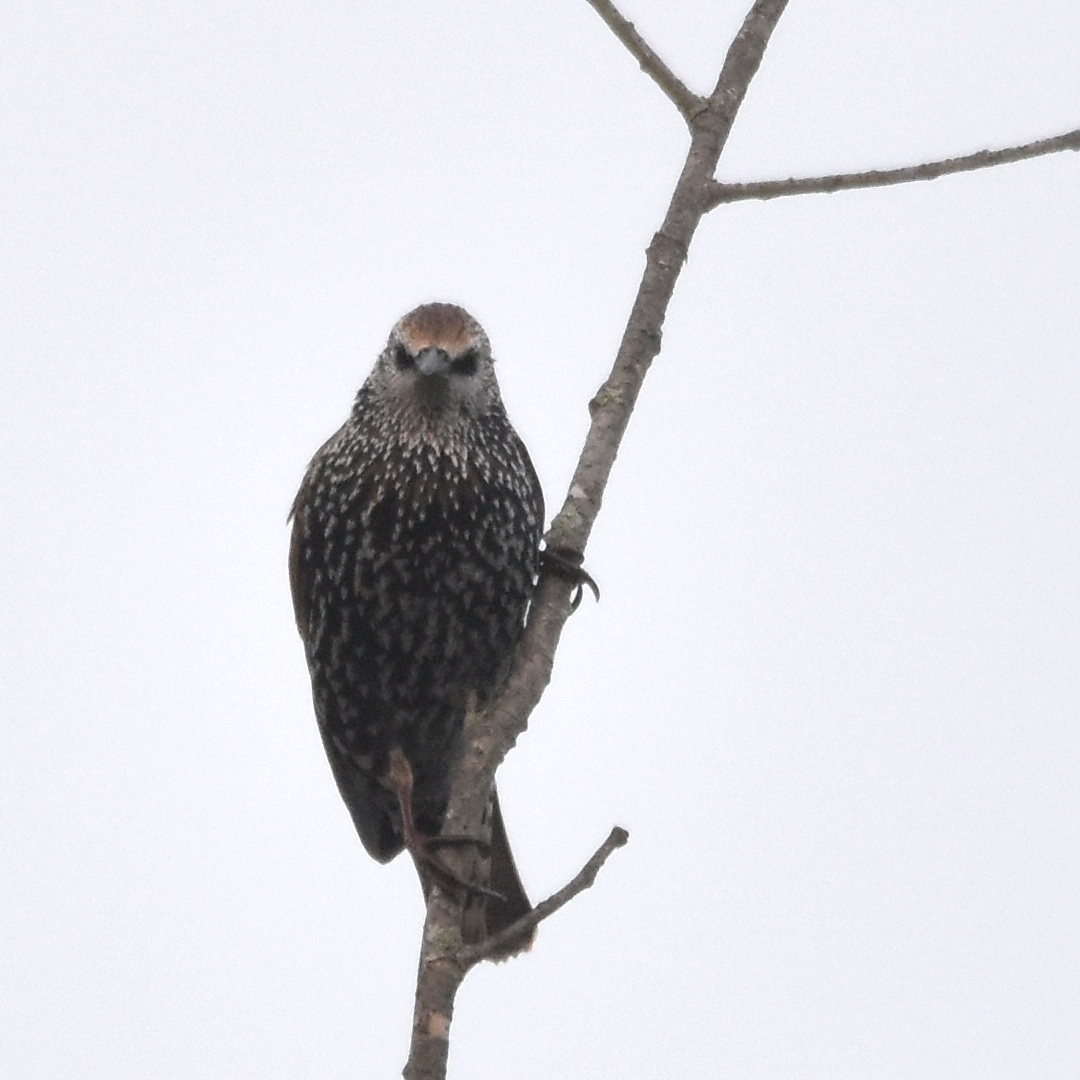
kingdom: Animalia
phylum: Chordata
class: Aves
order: Passeriformes
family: Sturnidae
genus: Sturnus
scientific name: Sturnus vulgaris
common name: Common starling
